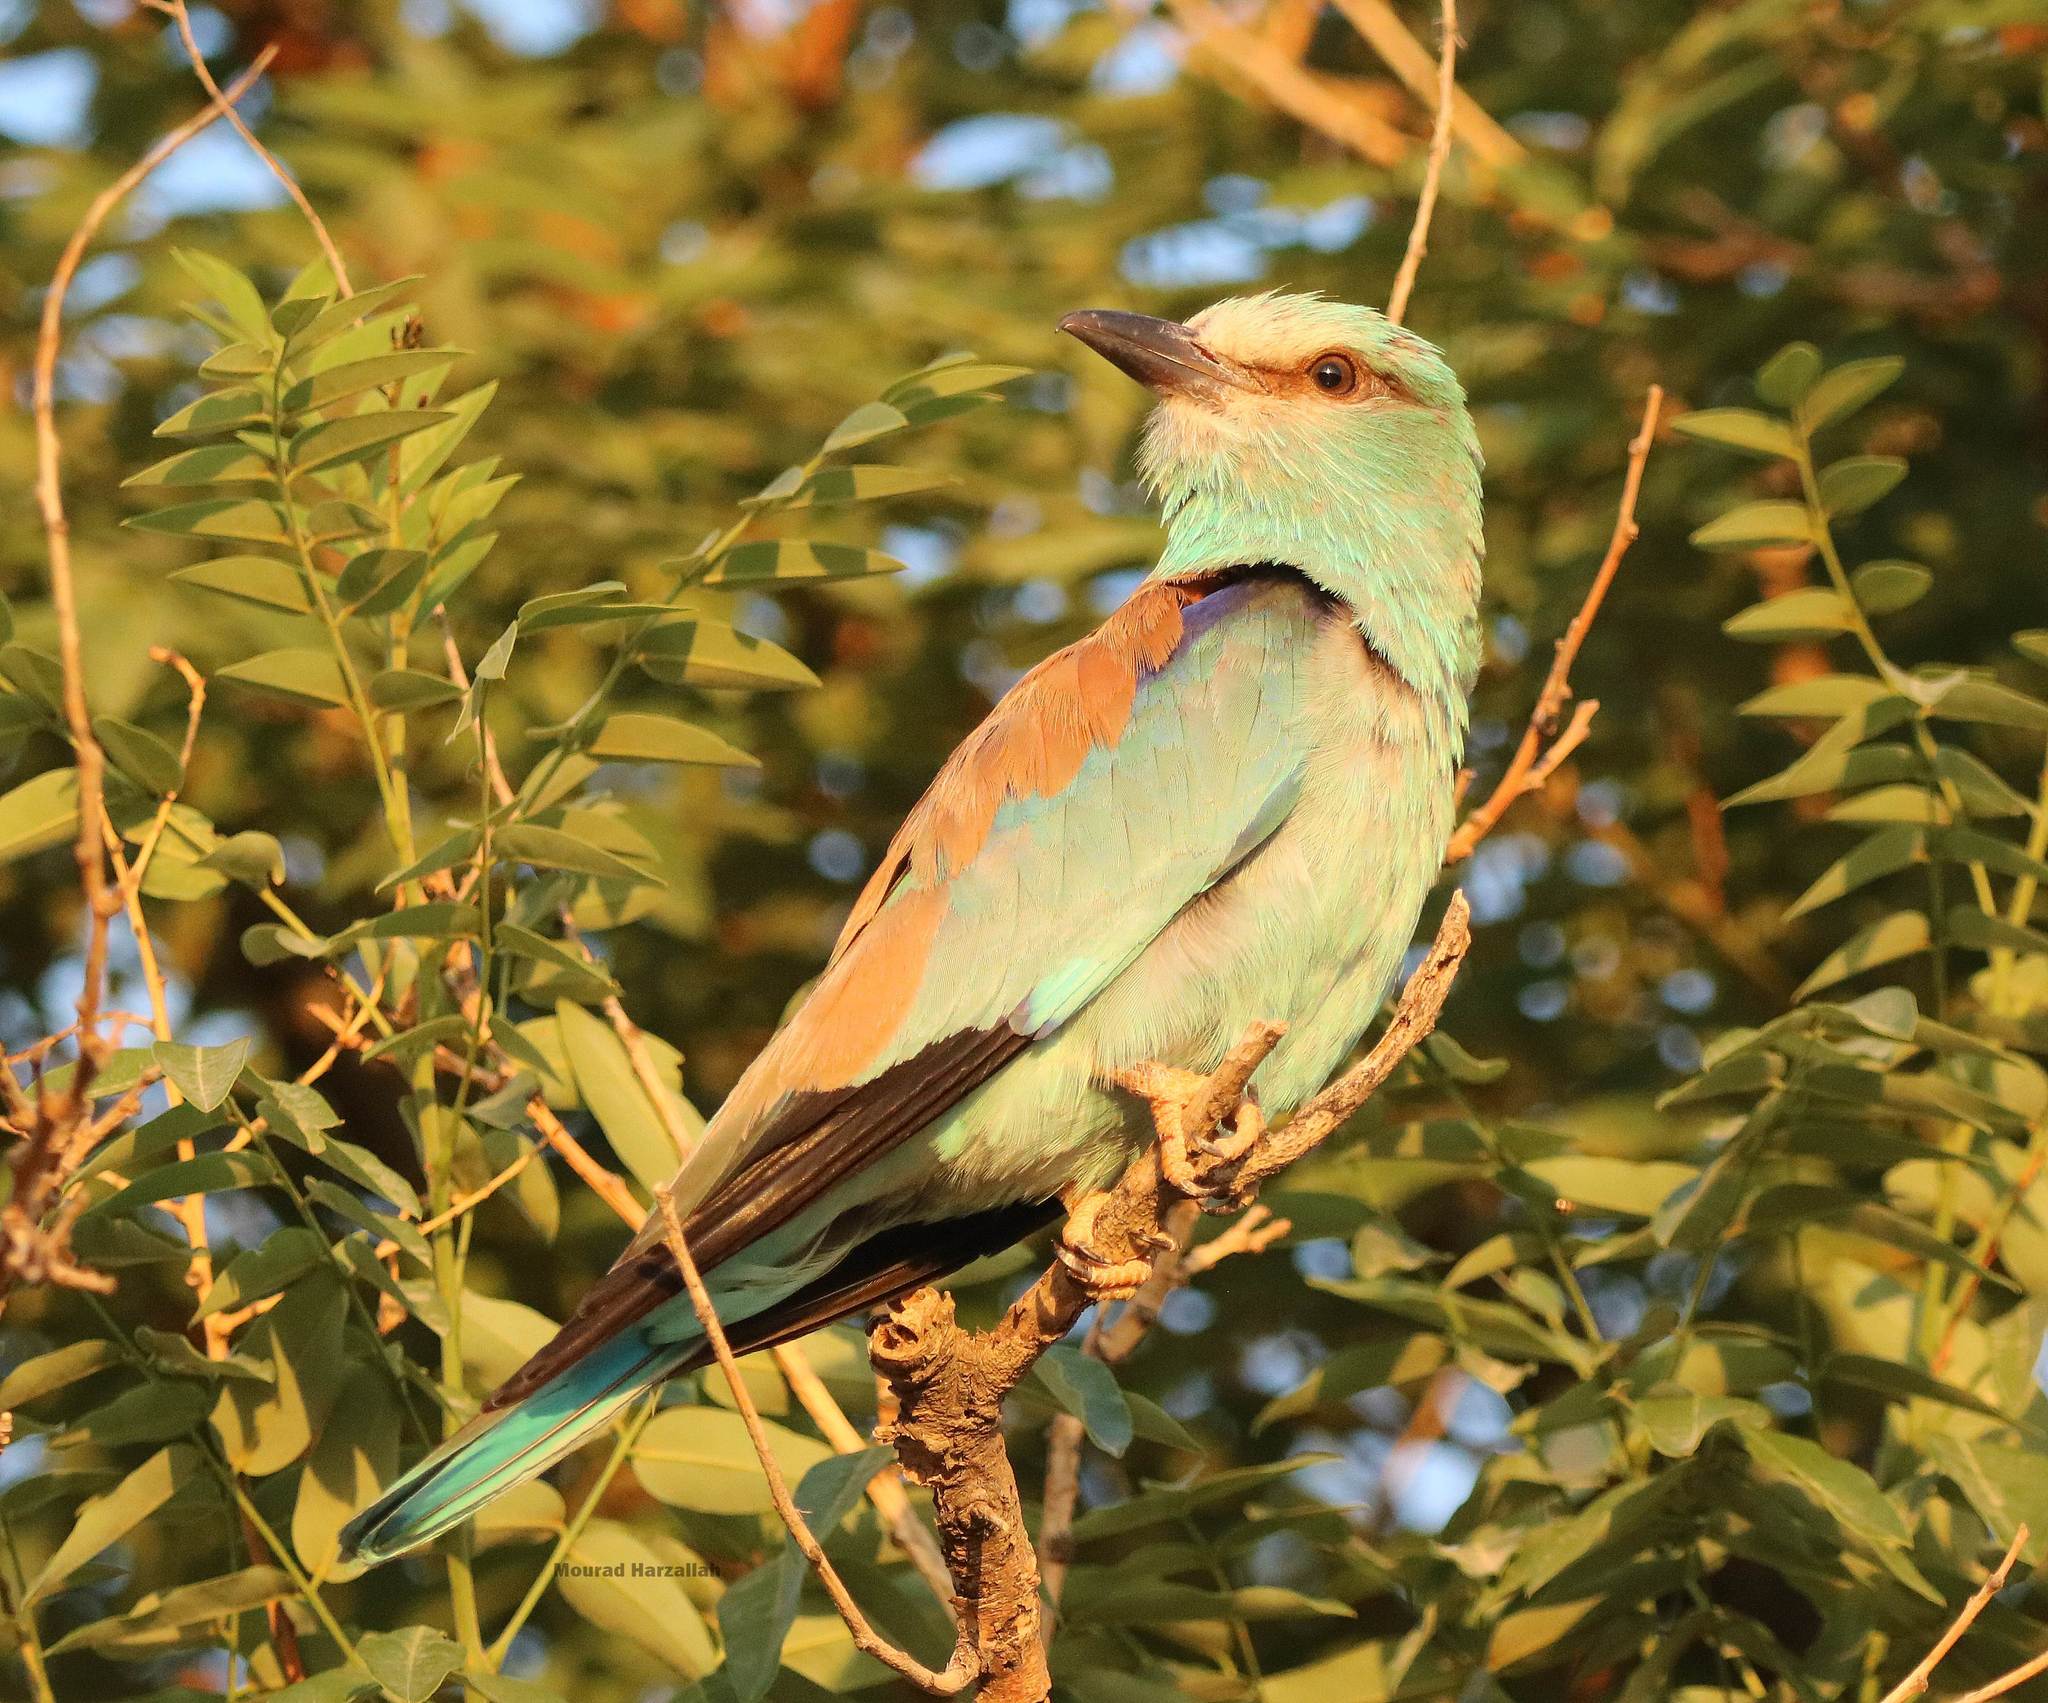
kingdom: Animalia
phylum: Chordata
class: Aves
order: Coraciiformes
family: Coraciidae
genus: Coracias
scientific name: Coracias garrulus
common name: European roller
